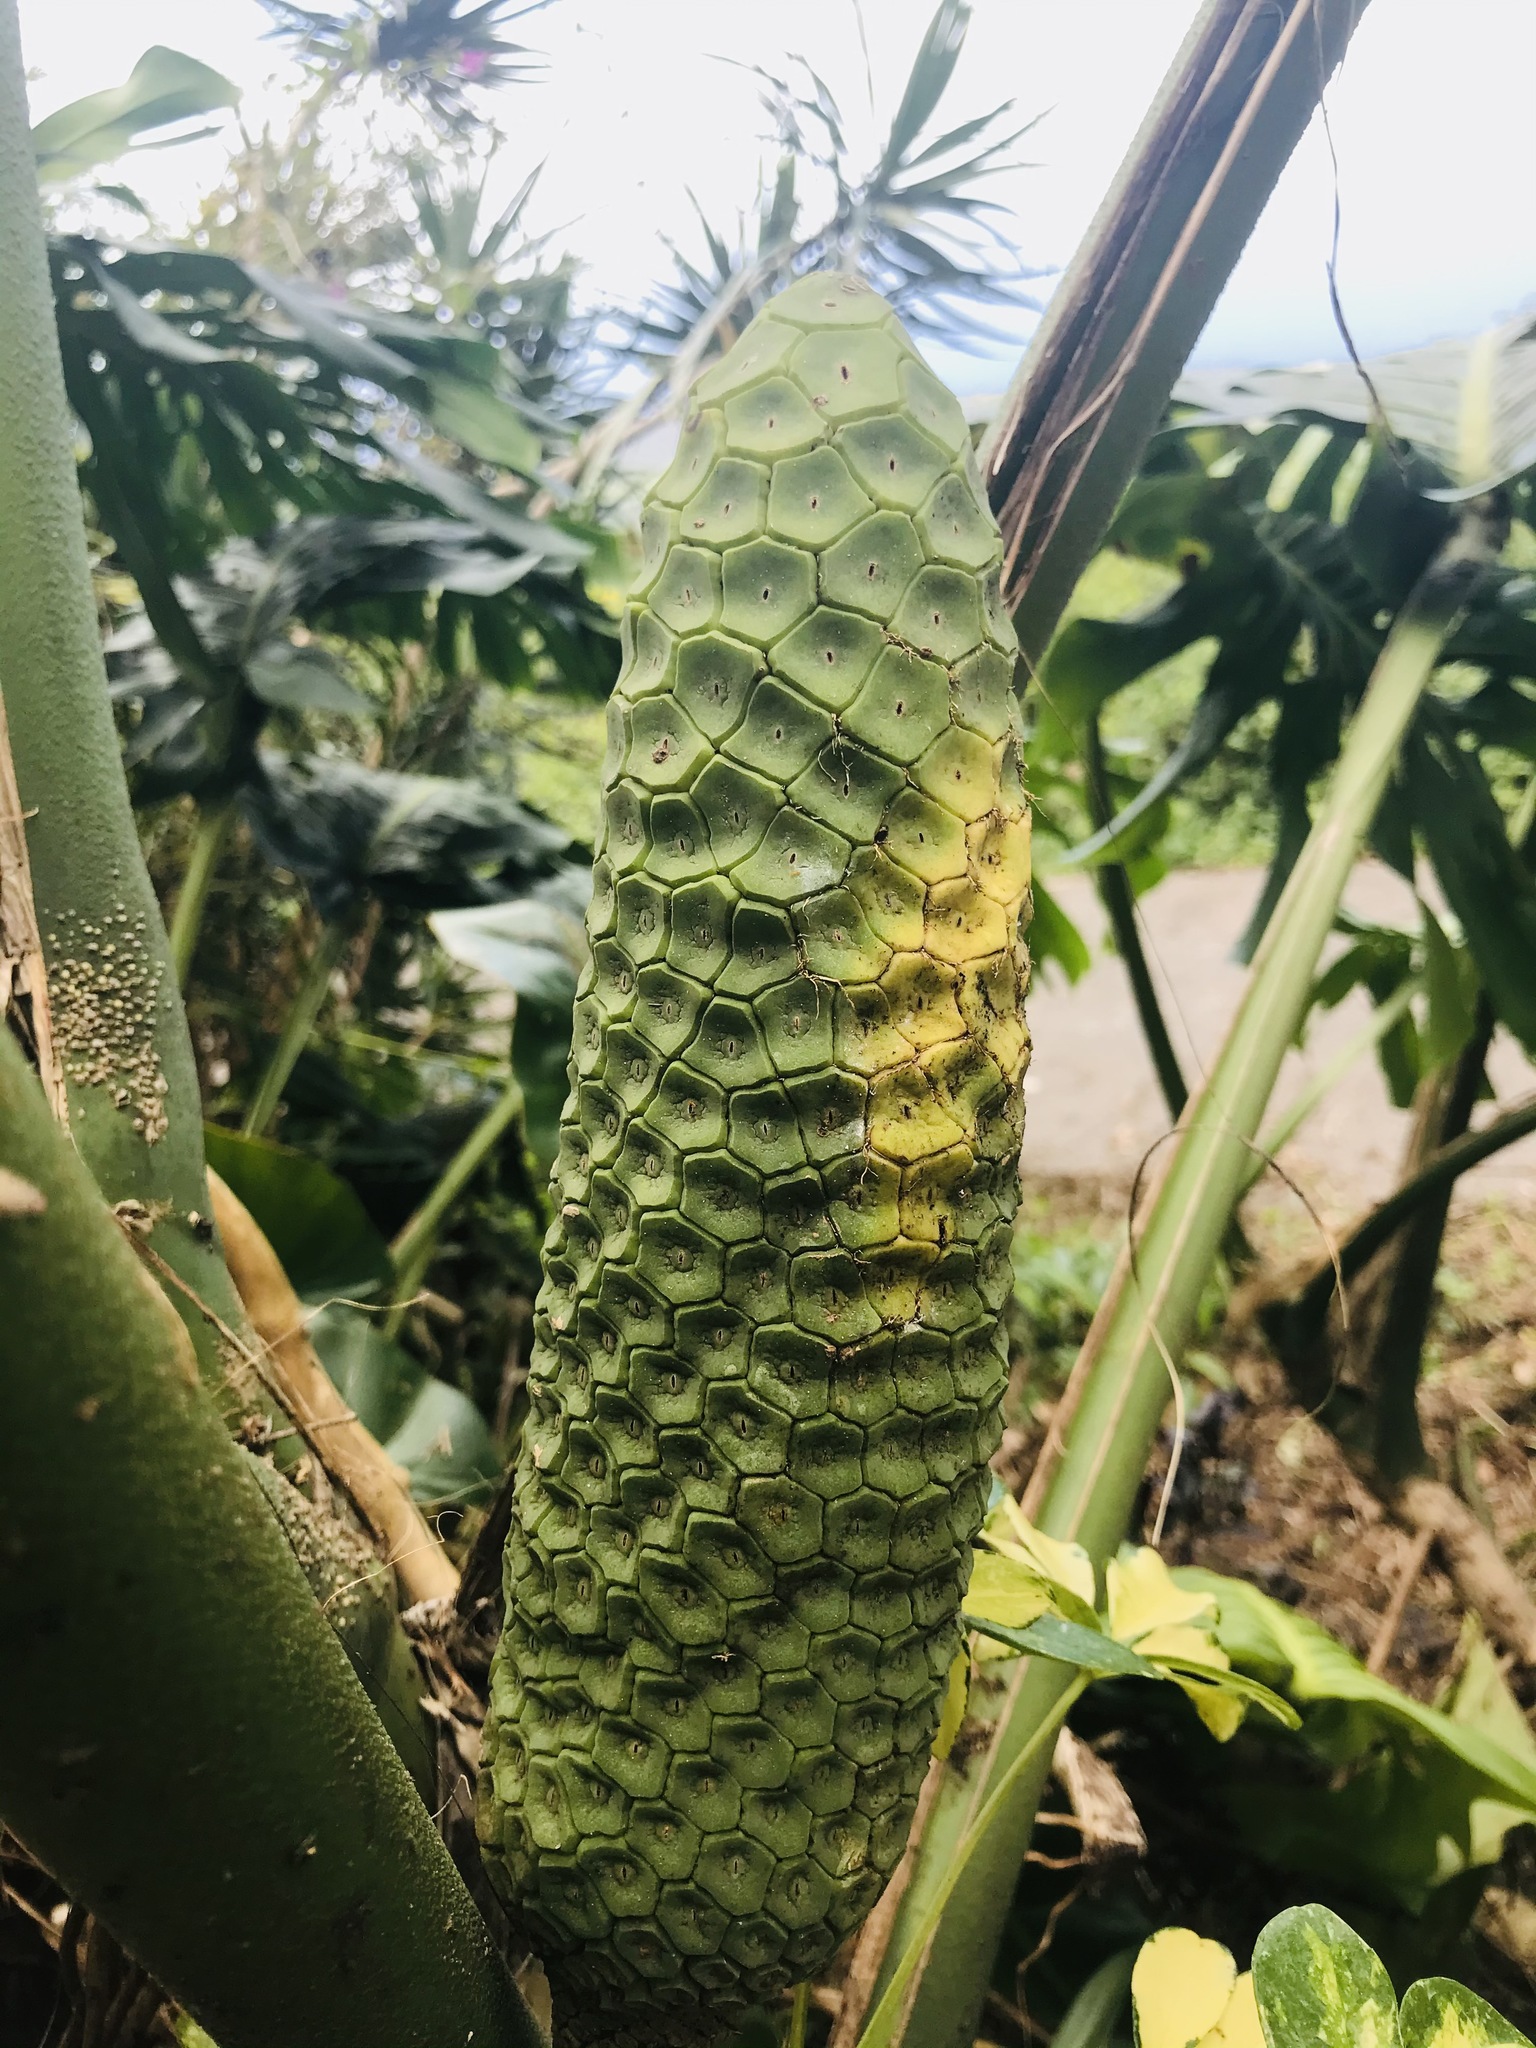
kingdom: Plantae
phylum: Tracheophyta
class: Liliopsida
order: Alismatales
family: Araceae
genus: Monstera
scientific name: Monstera deliciosa
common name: Cut-leaf-philodendron
